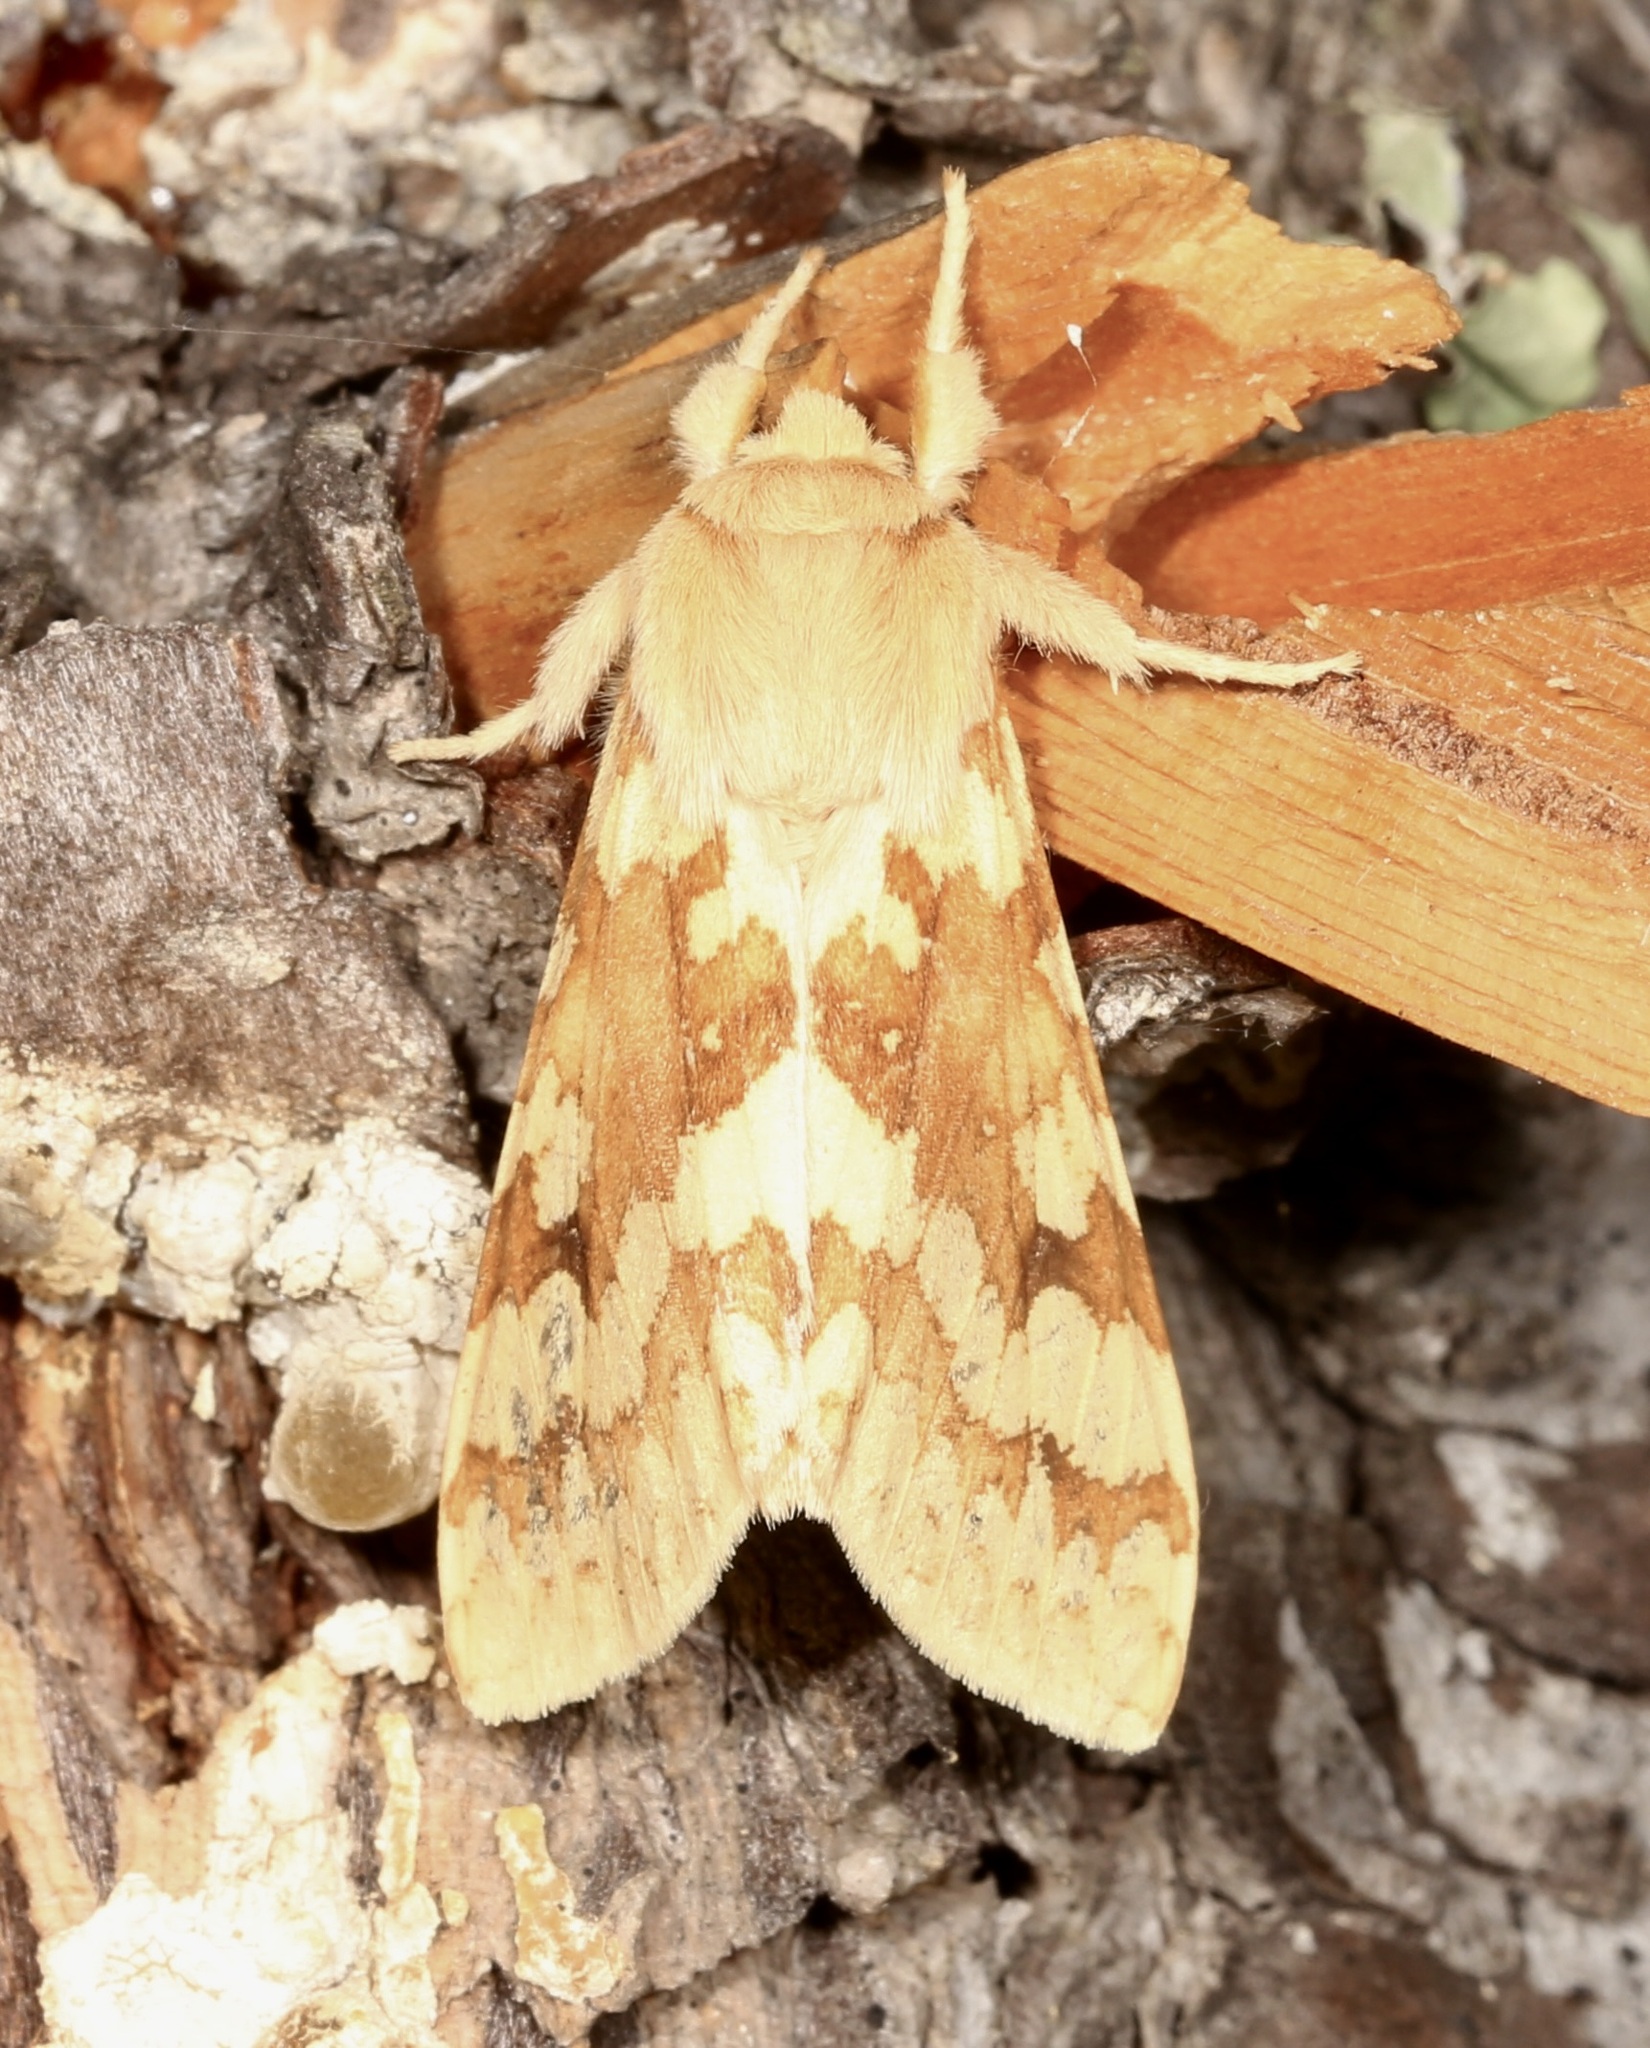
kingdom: Animalia
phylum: Arthropoda
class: Insecta
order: Lepidoptera
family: Erebidae
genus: Lophocampa
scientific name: Lophocampa maculata
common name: Spotted tussock moth
